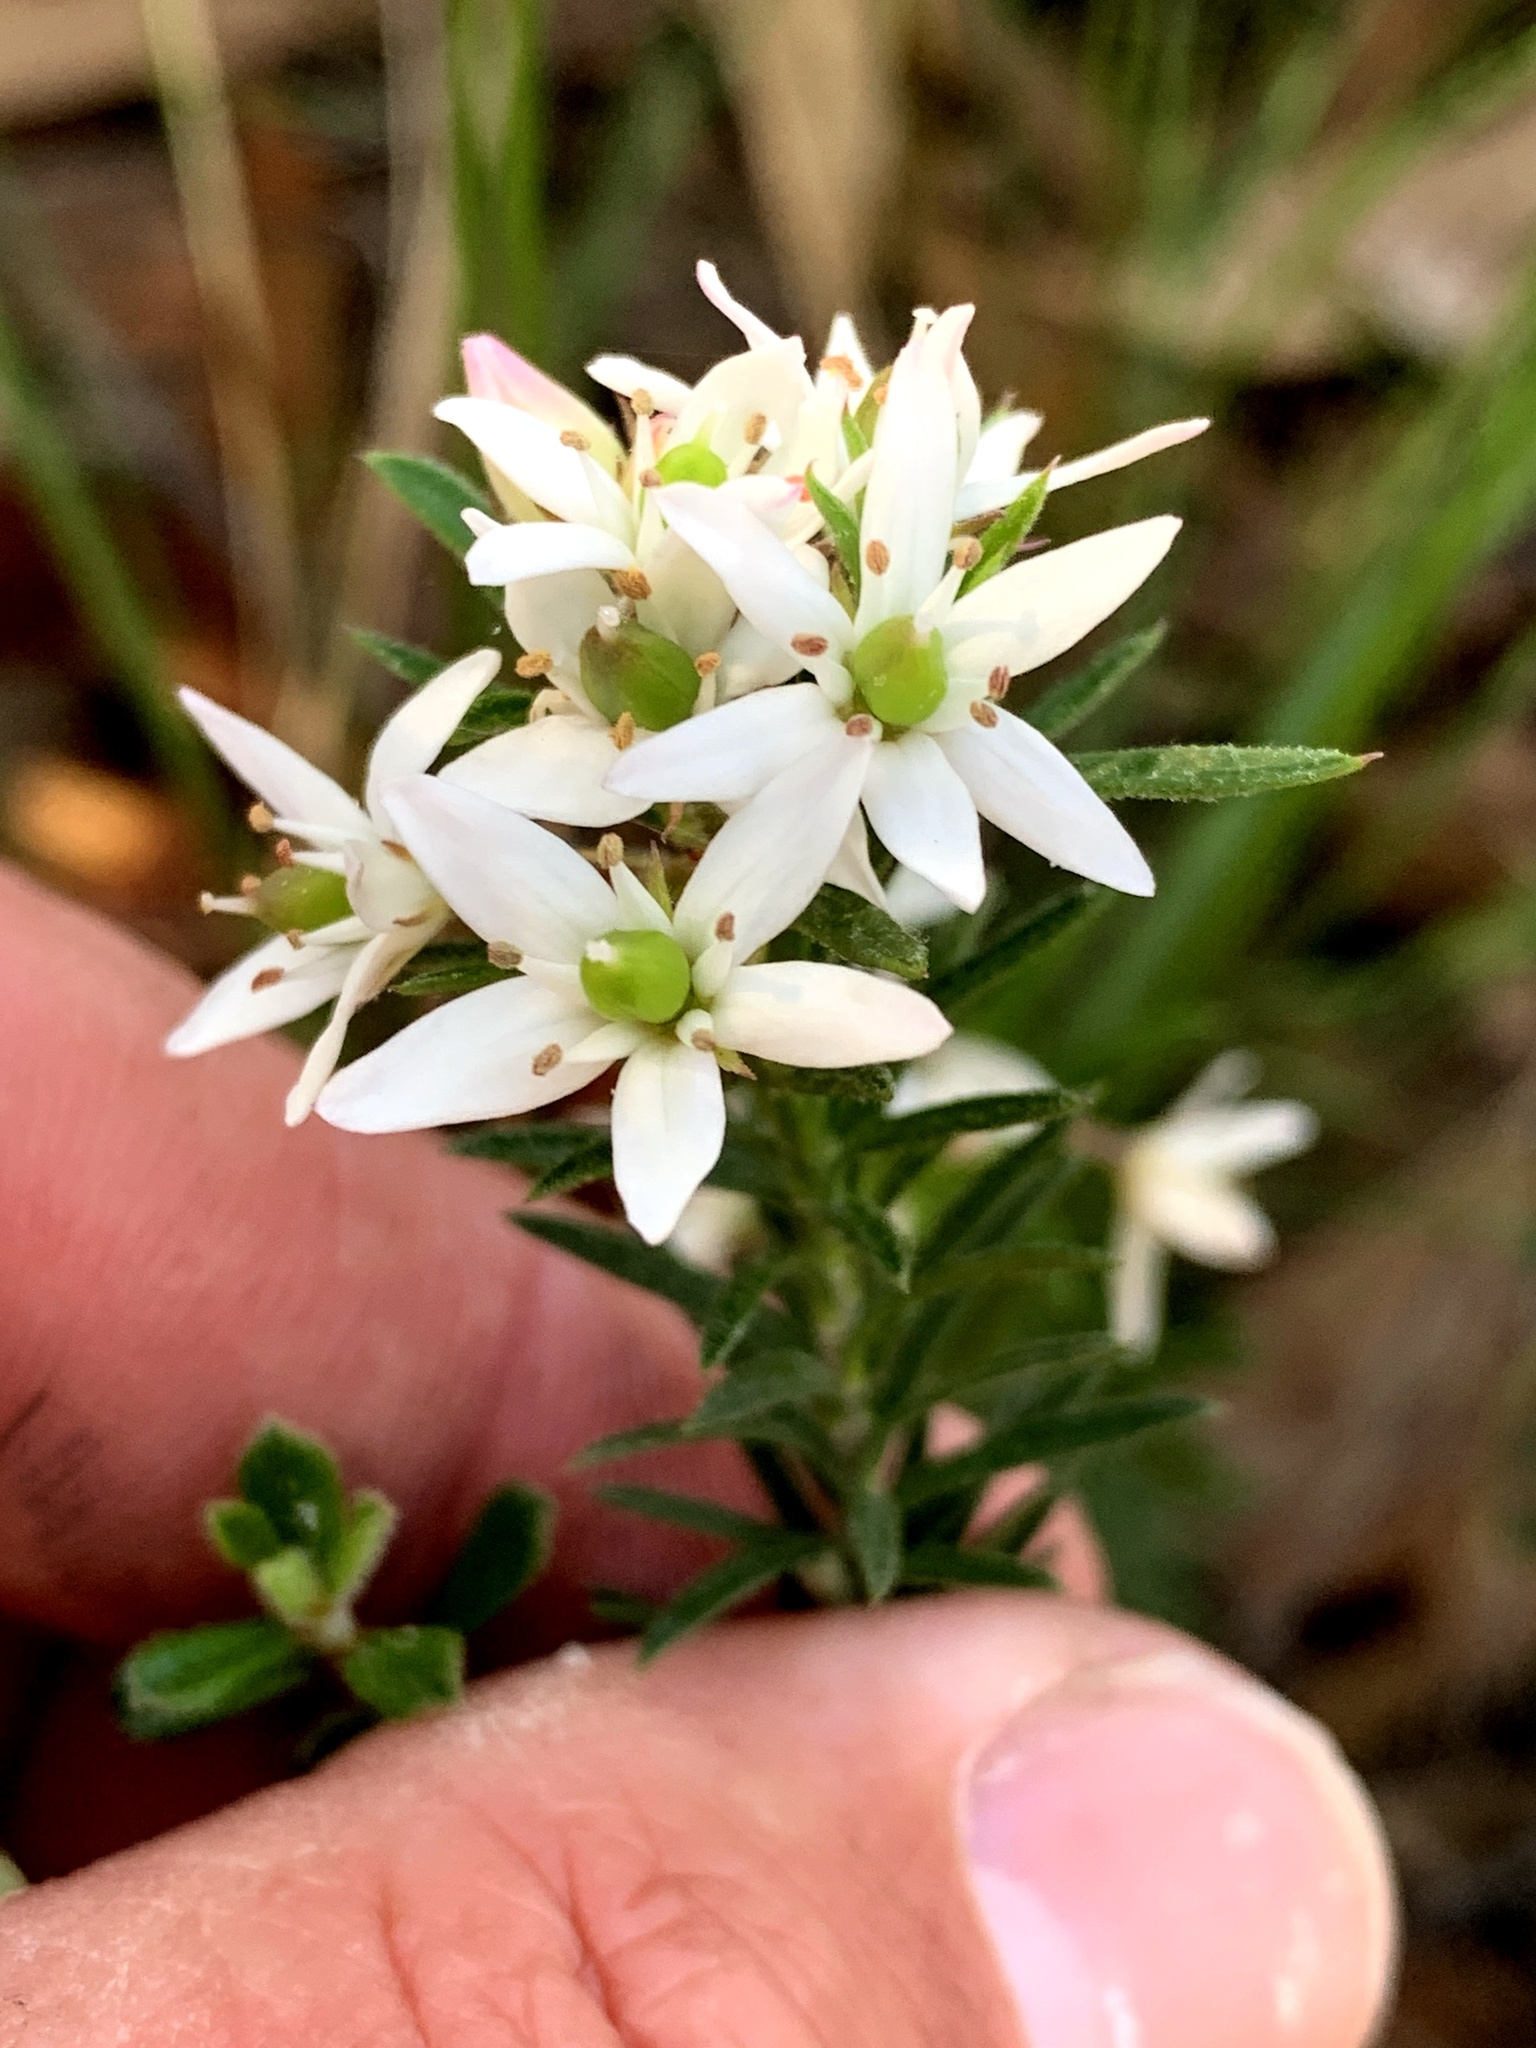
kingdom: Plantae
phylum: Tracheophyta
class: Magnoliopsida
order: Apiales
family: Pittosporaceae
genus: Rhytidosporum
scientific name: Rhytidosporum procumbens
